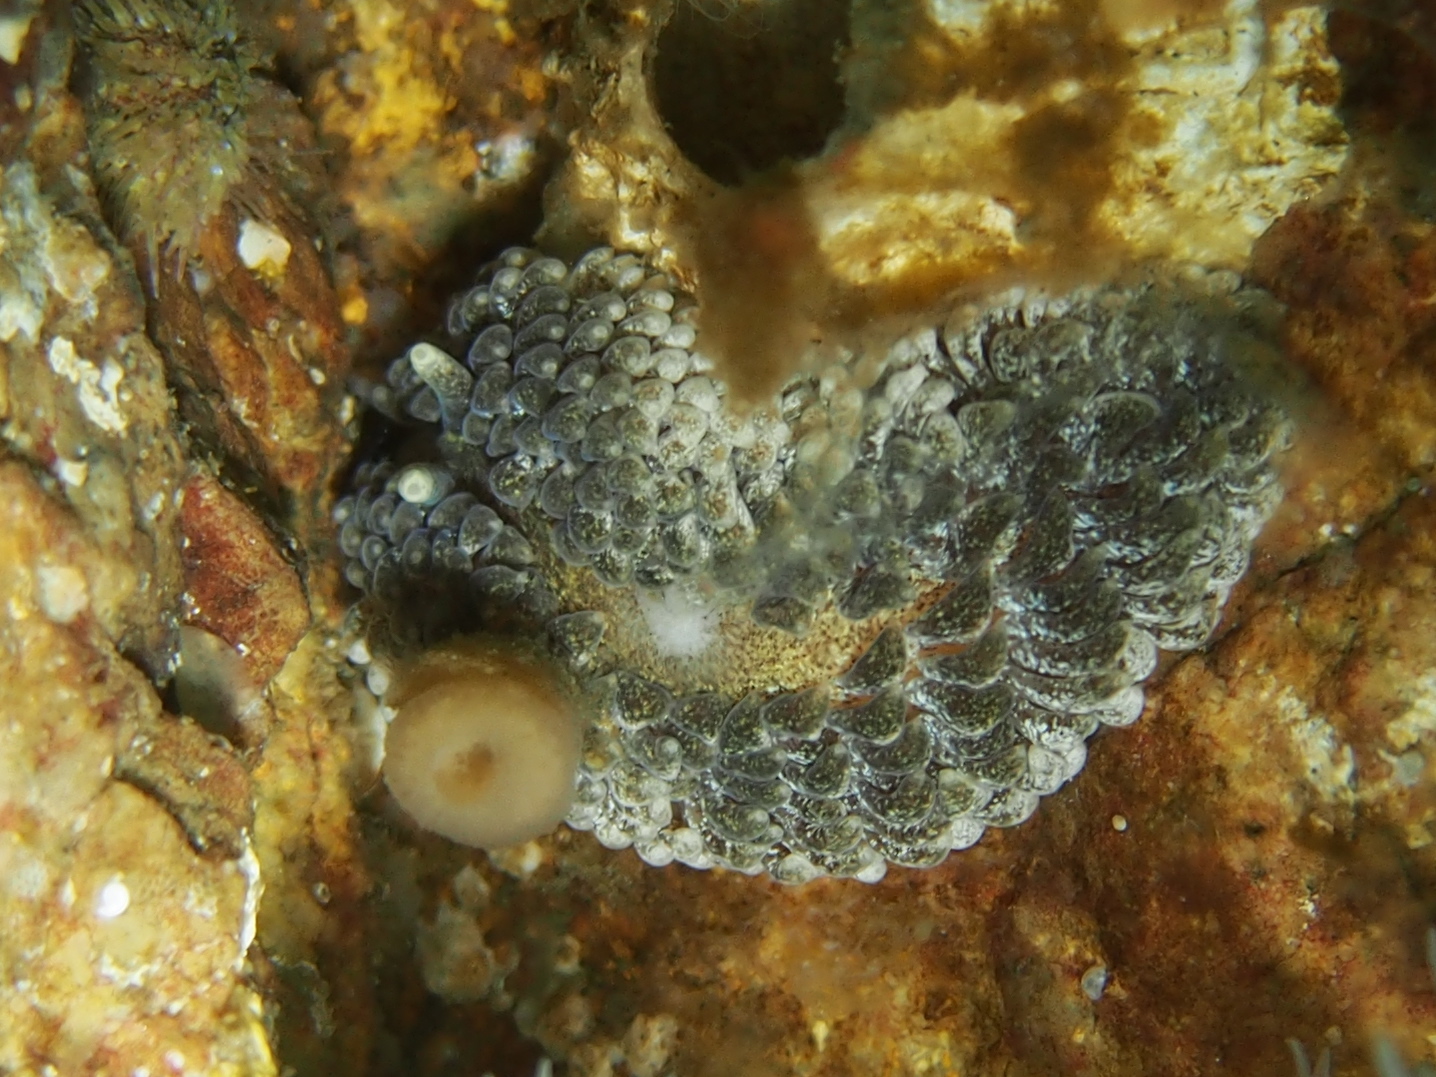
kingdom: Animalia
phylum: Mollusca
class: Gastropoda
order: Nudibranchia
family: Aeolidiidae
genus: Aeolidia
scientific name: Aeolidia papillosa
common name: Common grey sea slug
